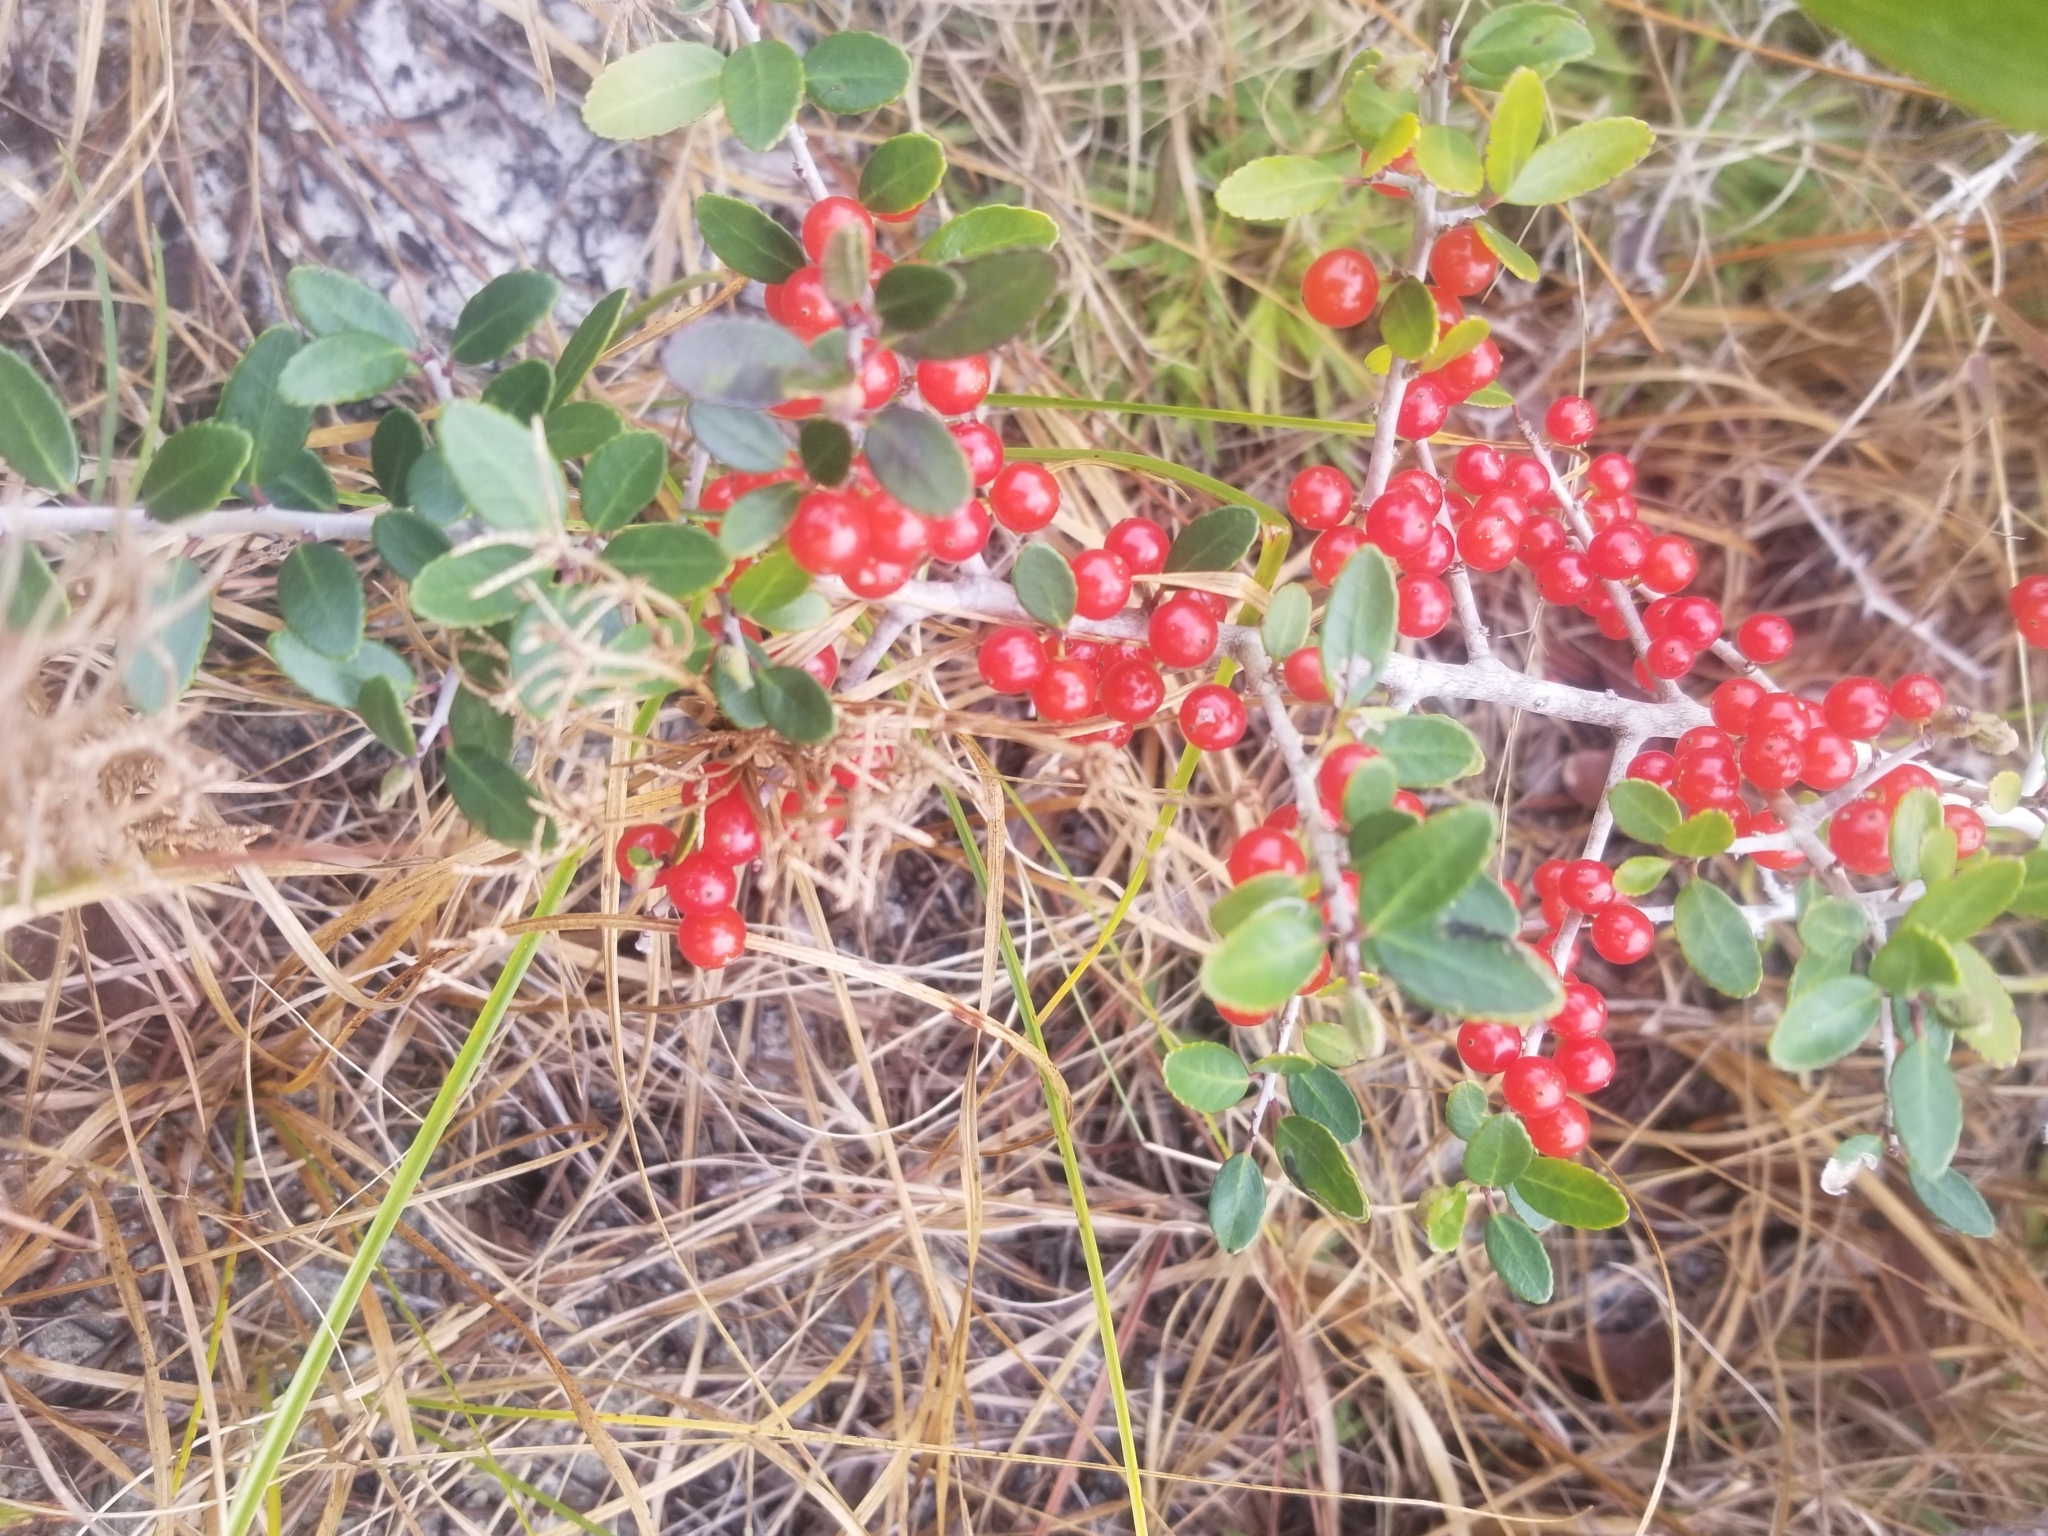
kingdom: Plantae
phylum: Tracheophyta
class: Magnoliopsida
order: Aquifoliales
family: Aquifoliaceae
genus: Ilex
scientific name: Ilex vomitoria
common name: Yaupon holly
